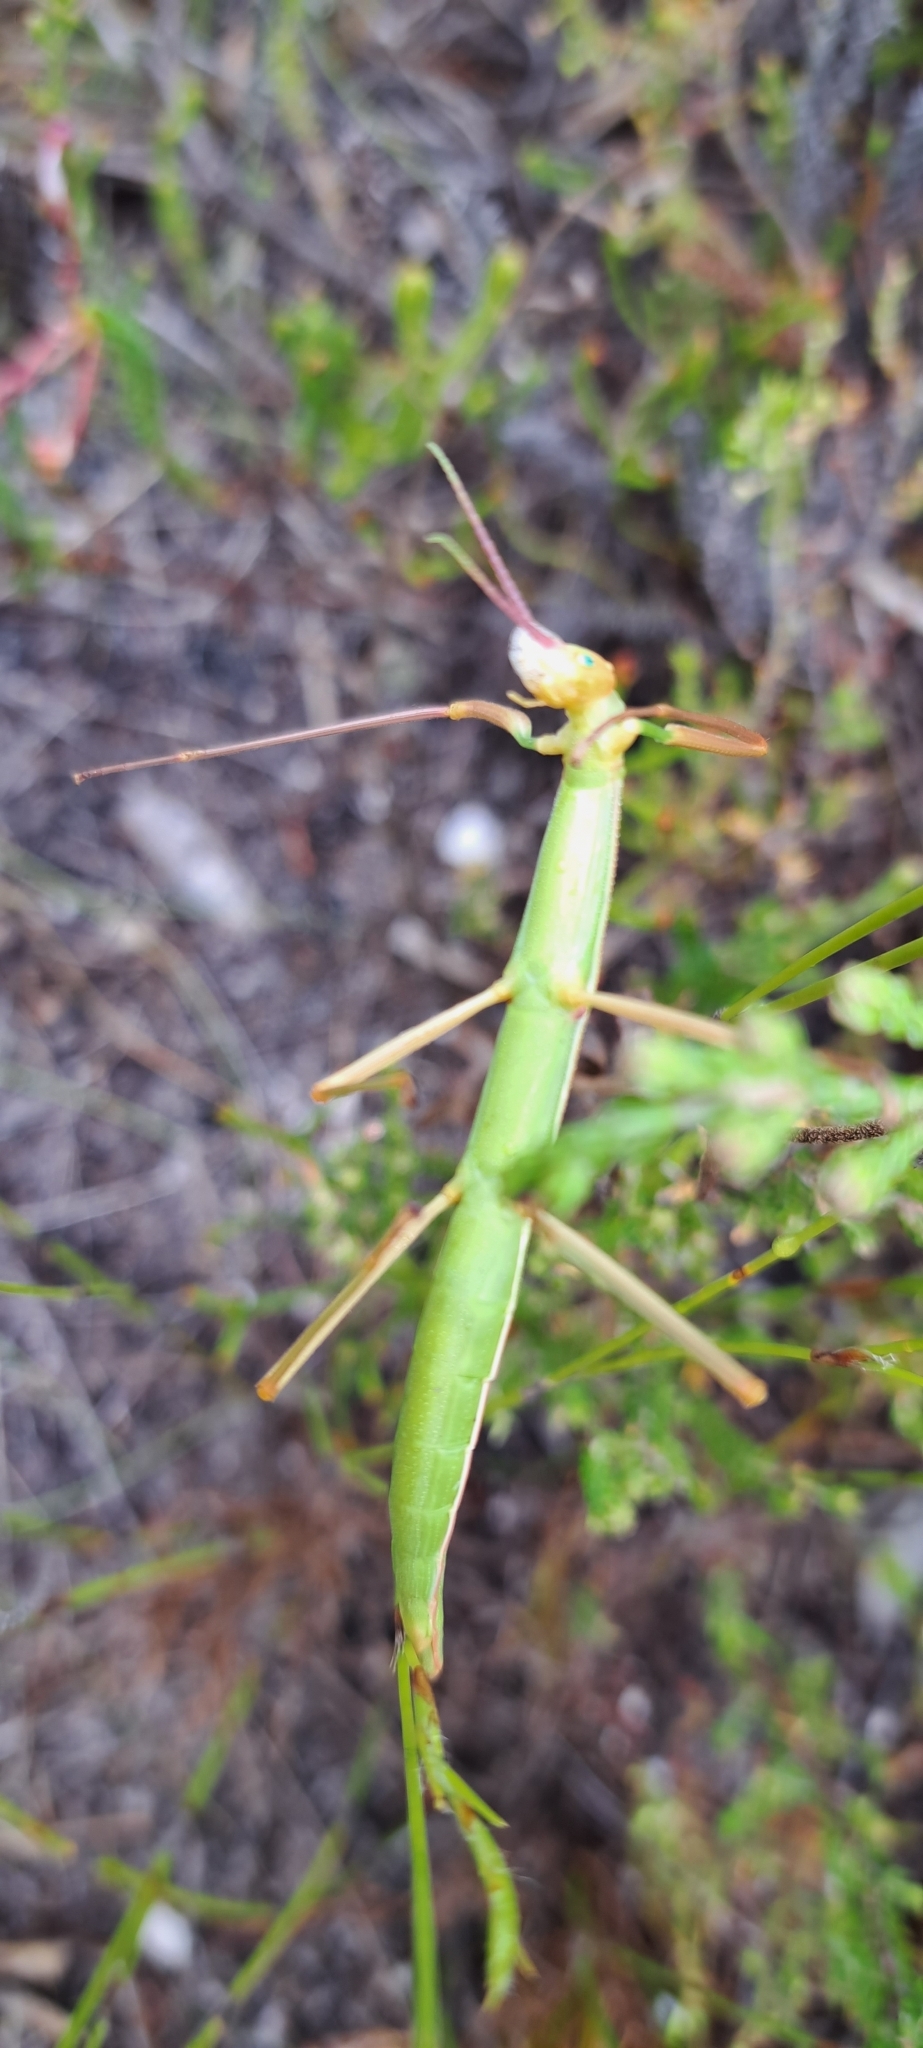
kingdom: Animalia
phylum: Arthropoda
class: Insecta
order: Phasmida
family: Bacillidae
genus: Macynia
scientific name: Macynia labiata
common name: Thunberg's stick insect
